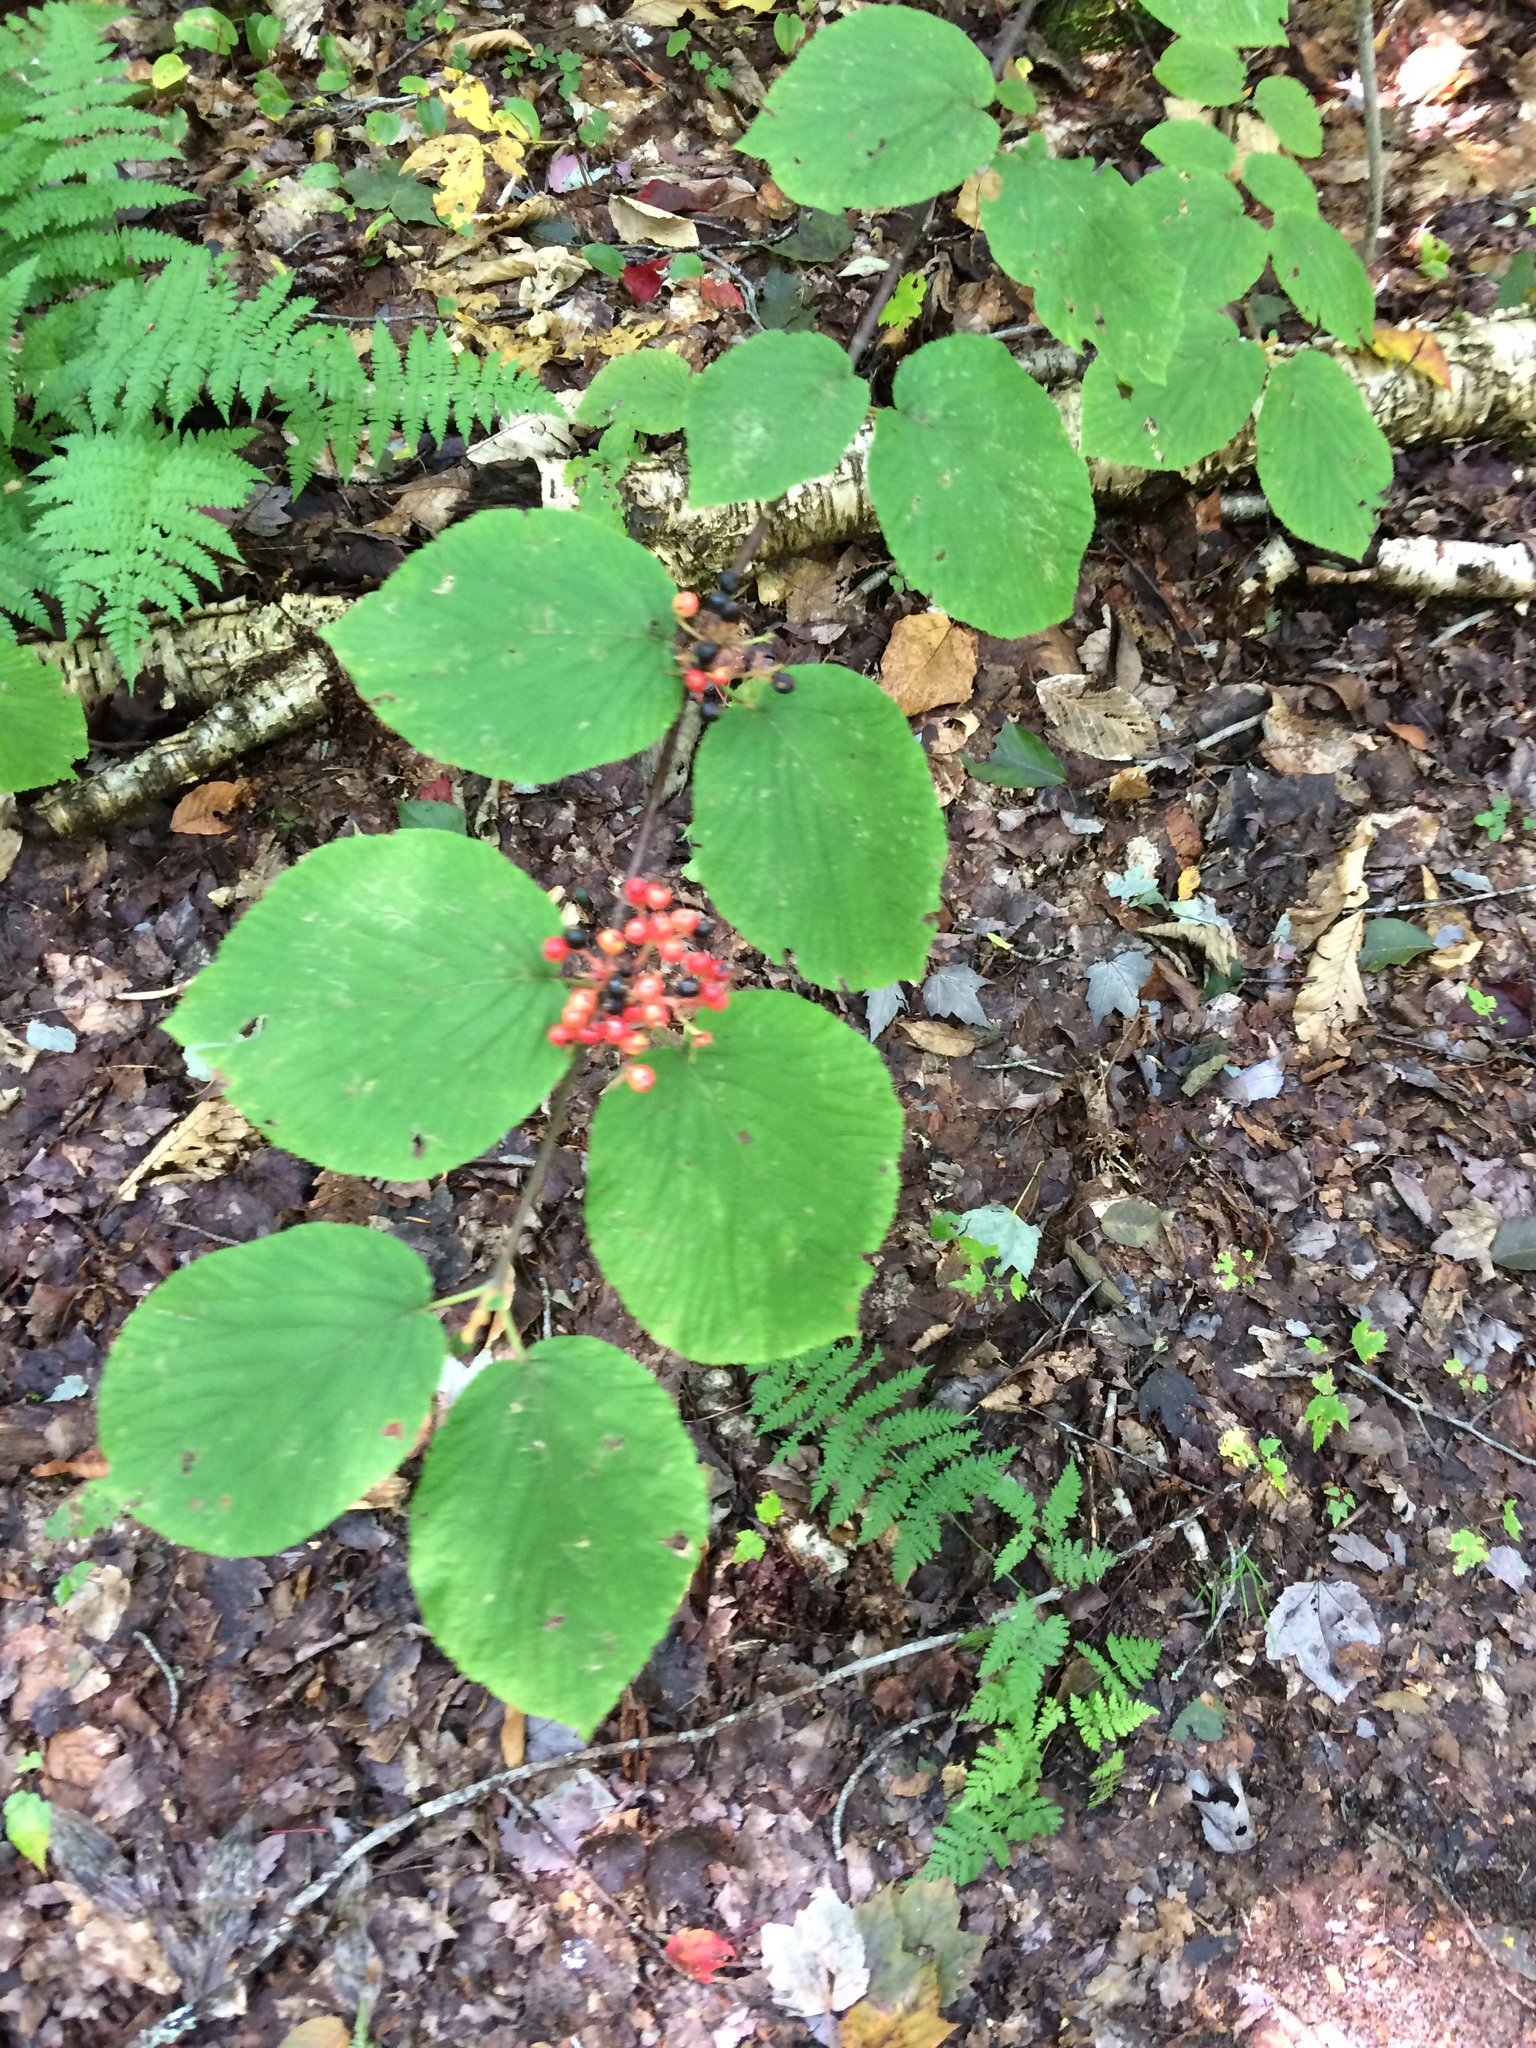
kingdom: Plantae
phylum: Tracheophyta
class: Magnoliopsida
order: Dipsacales
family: Viburnaceae
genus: Viburnum
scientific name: Viburnum lantanoides
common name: Hobblebush
